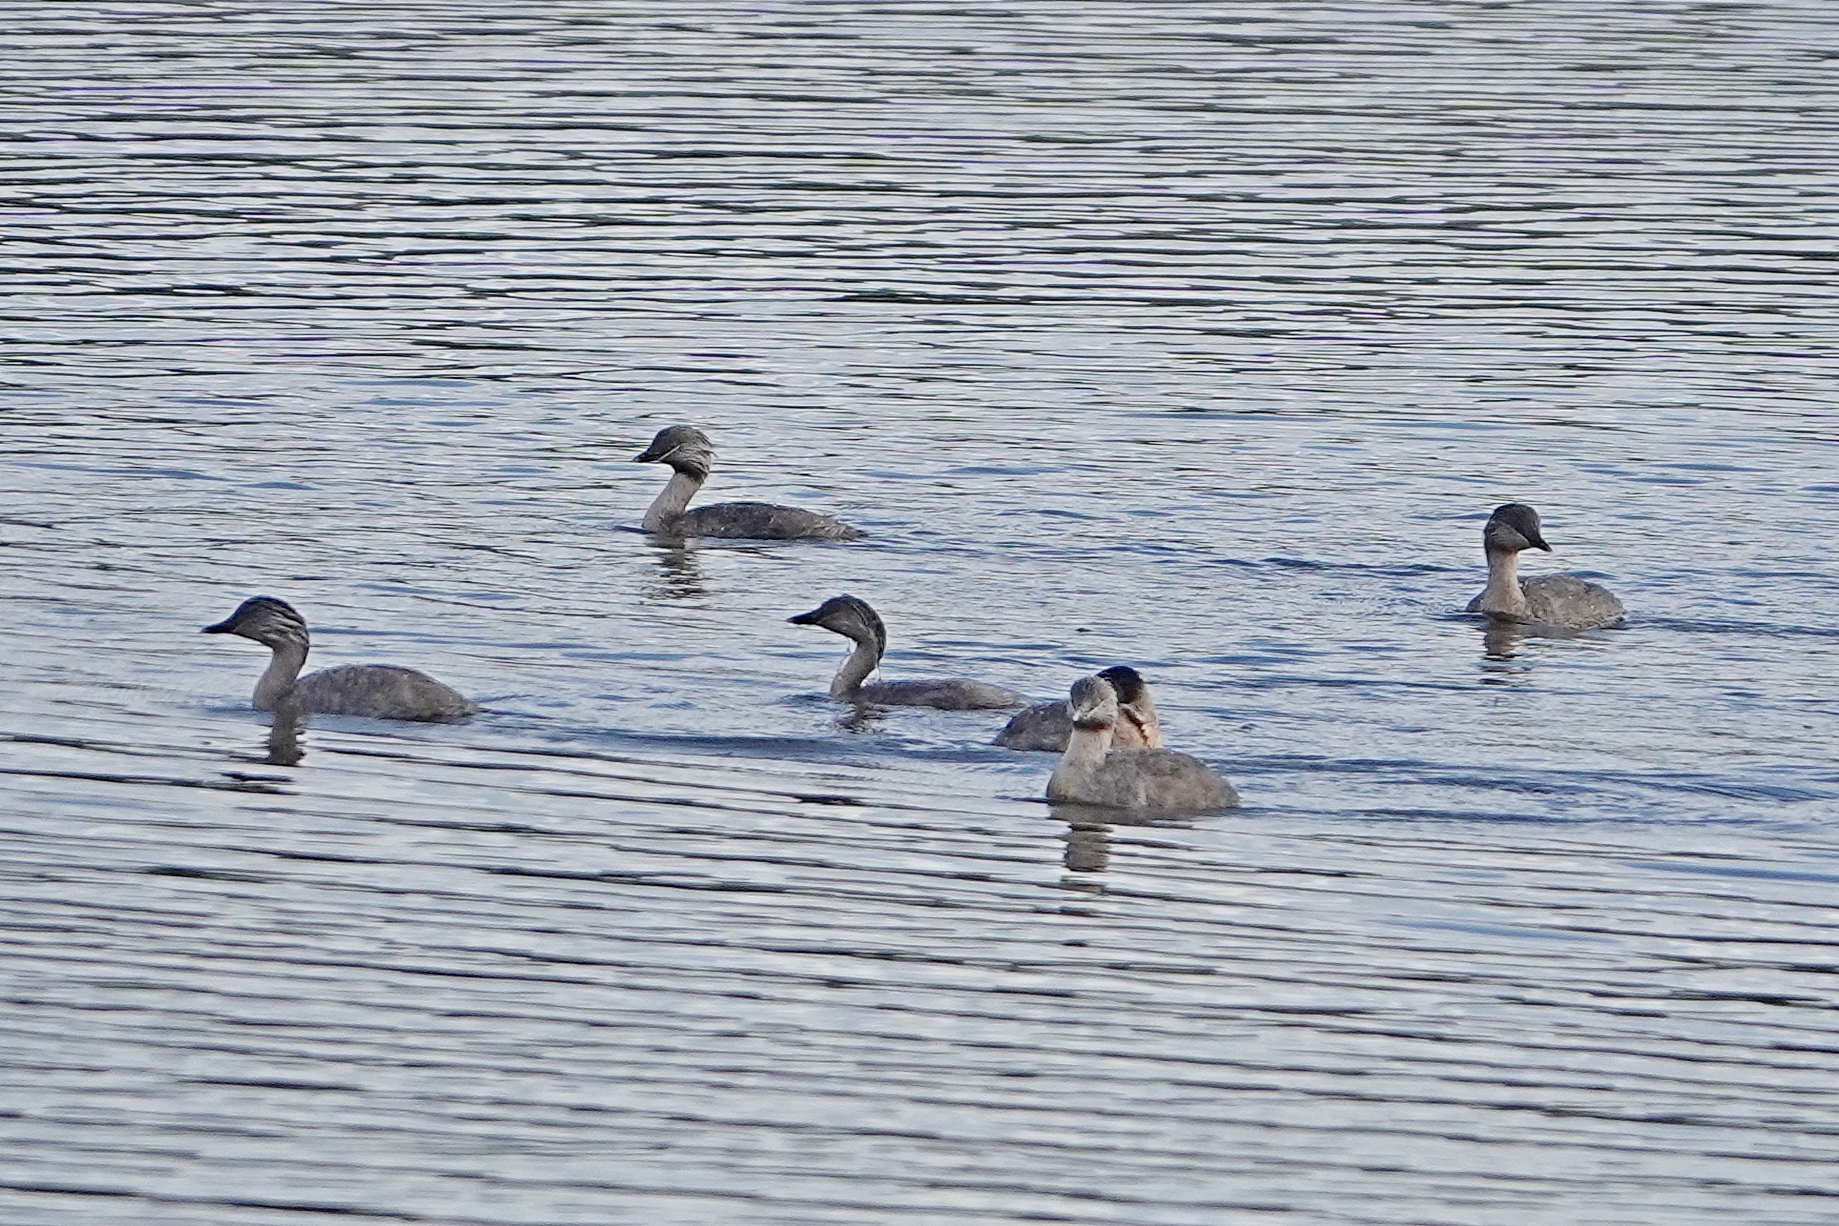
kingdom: Animalia
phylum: Chordata
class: Aves
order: Podicipediformes
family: Podicipedidae
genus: Poliocephalus
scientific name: Poliocephalus poliocephalus
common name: Hoary-headed grebe
